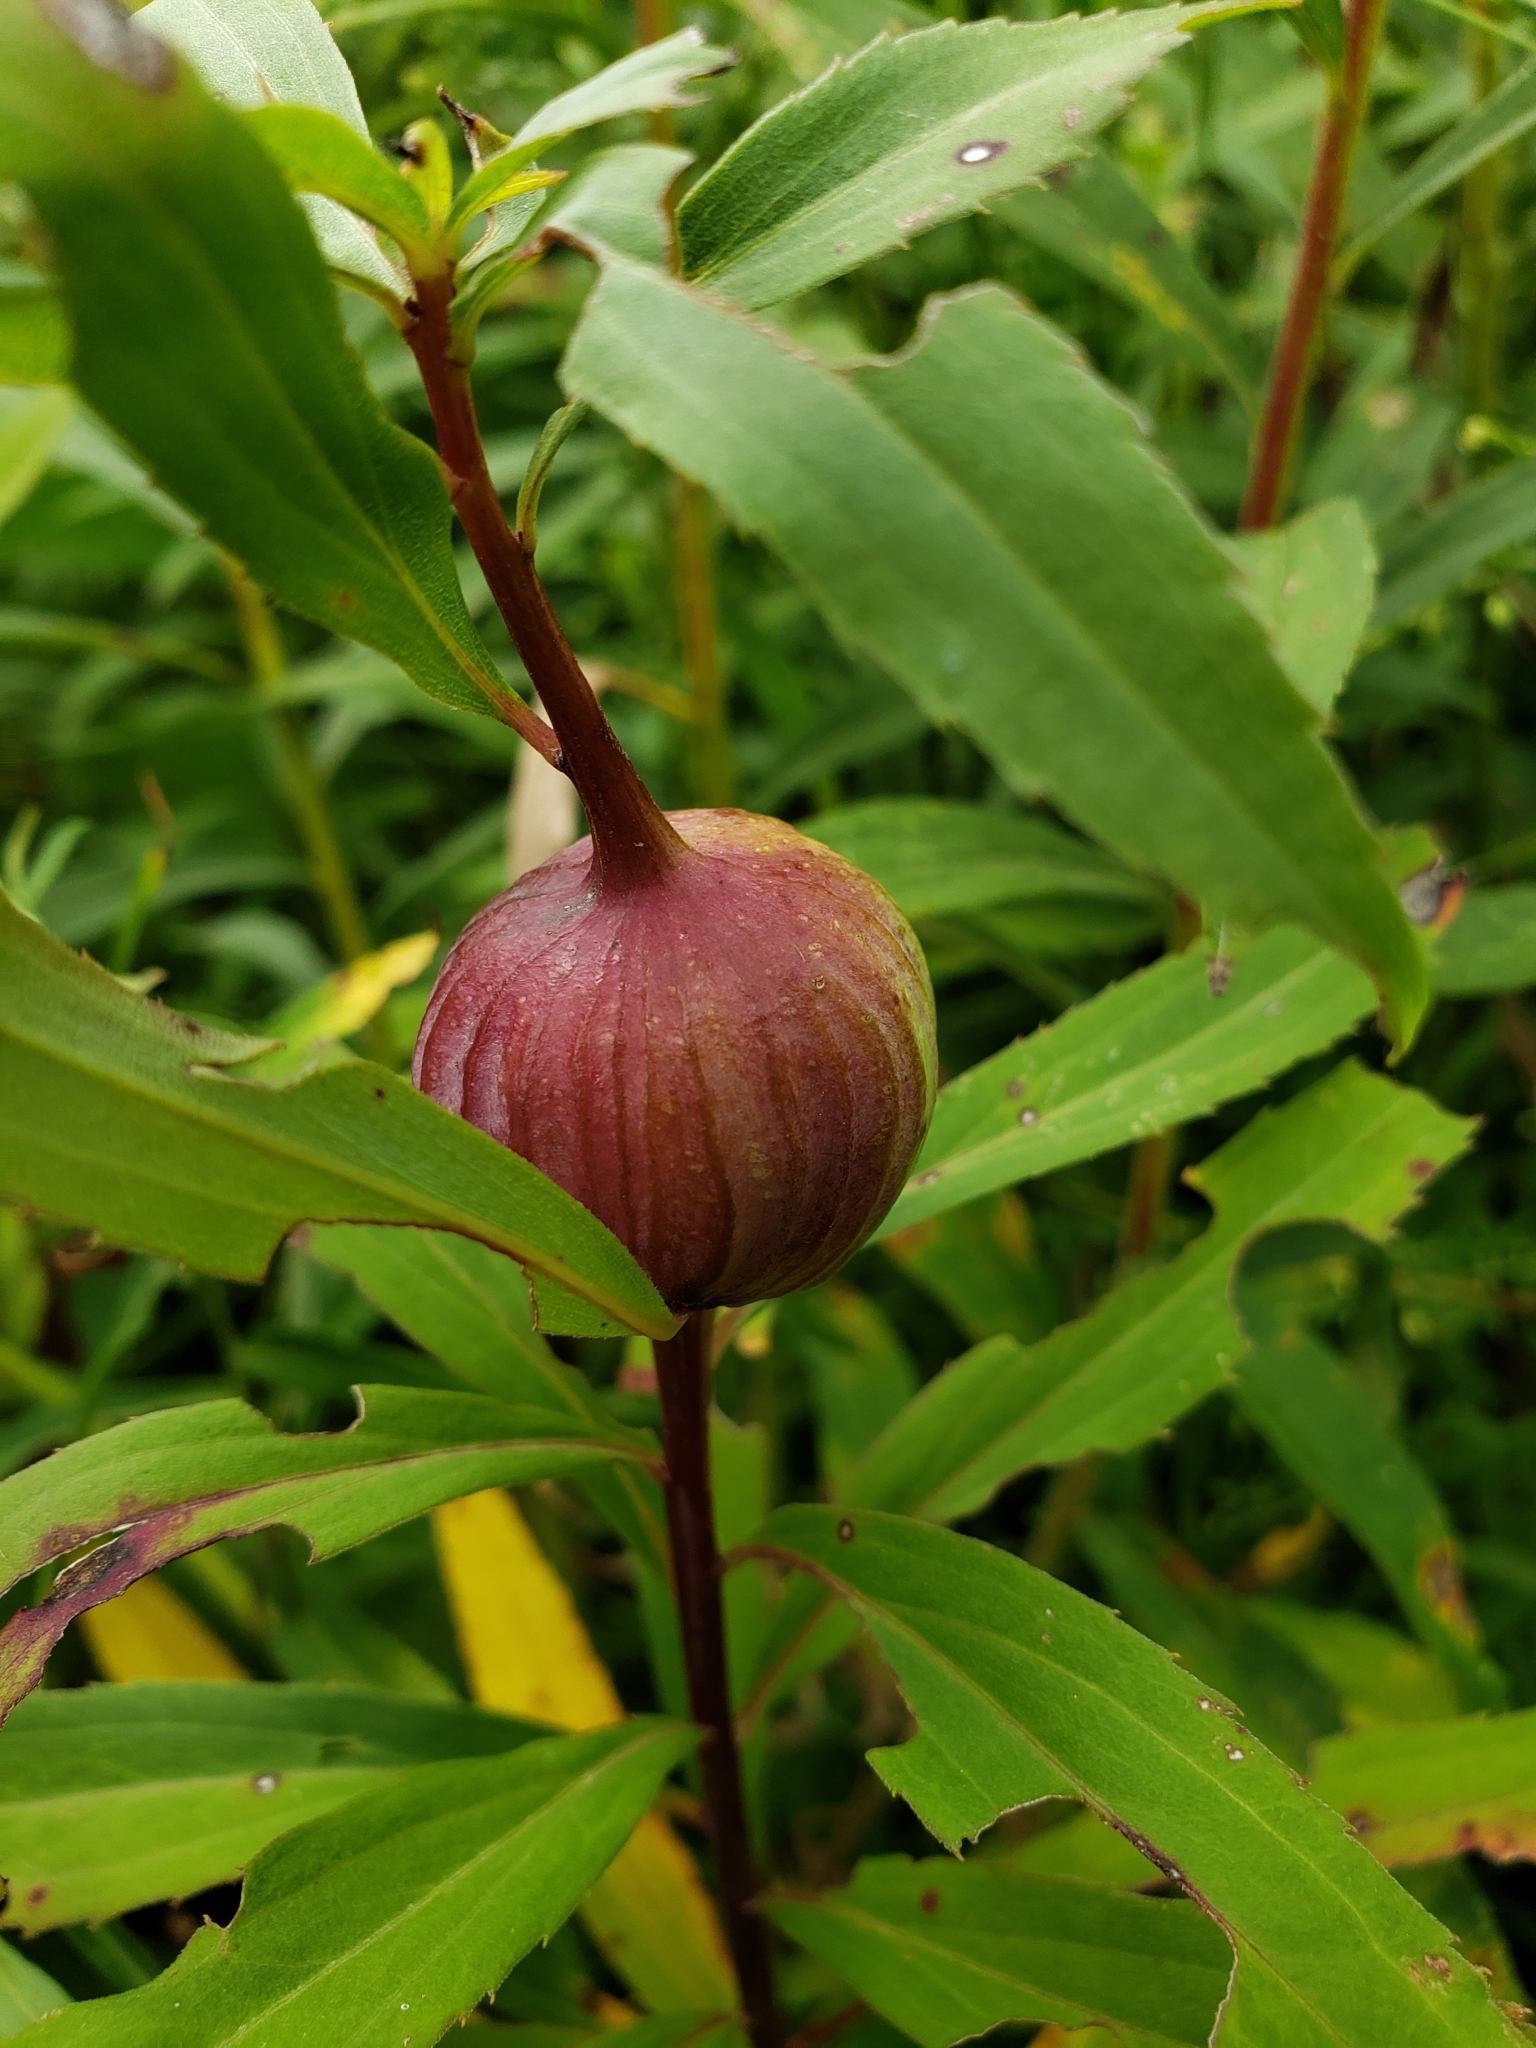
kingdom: Animalia
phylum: Arthropoda
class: Insecta
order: Diptera
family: Tephritidae
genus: Eurosta
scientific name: Eurosta solidaginis
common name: Goldenrod gall fly
